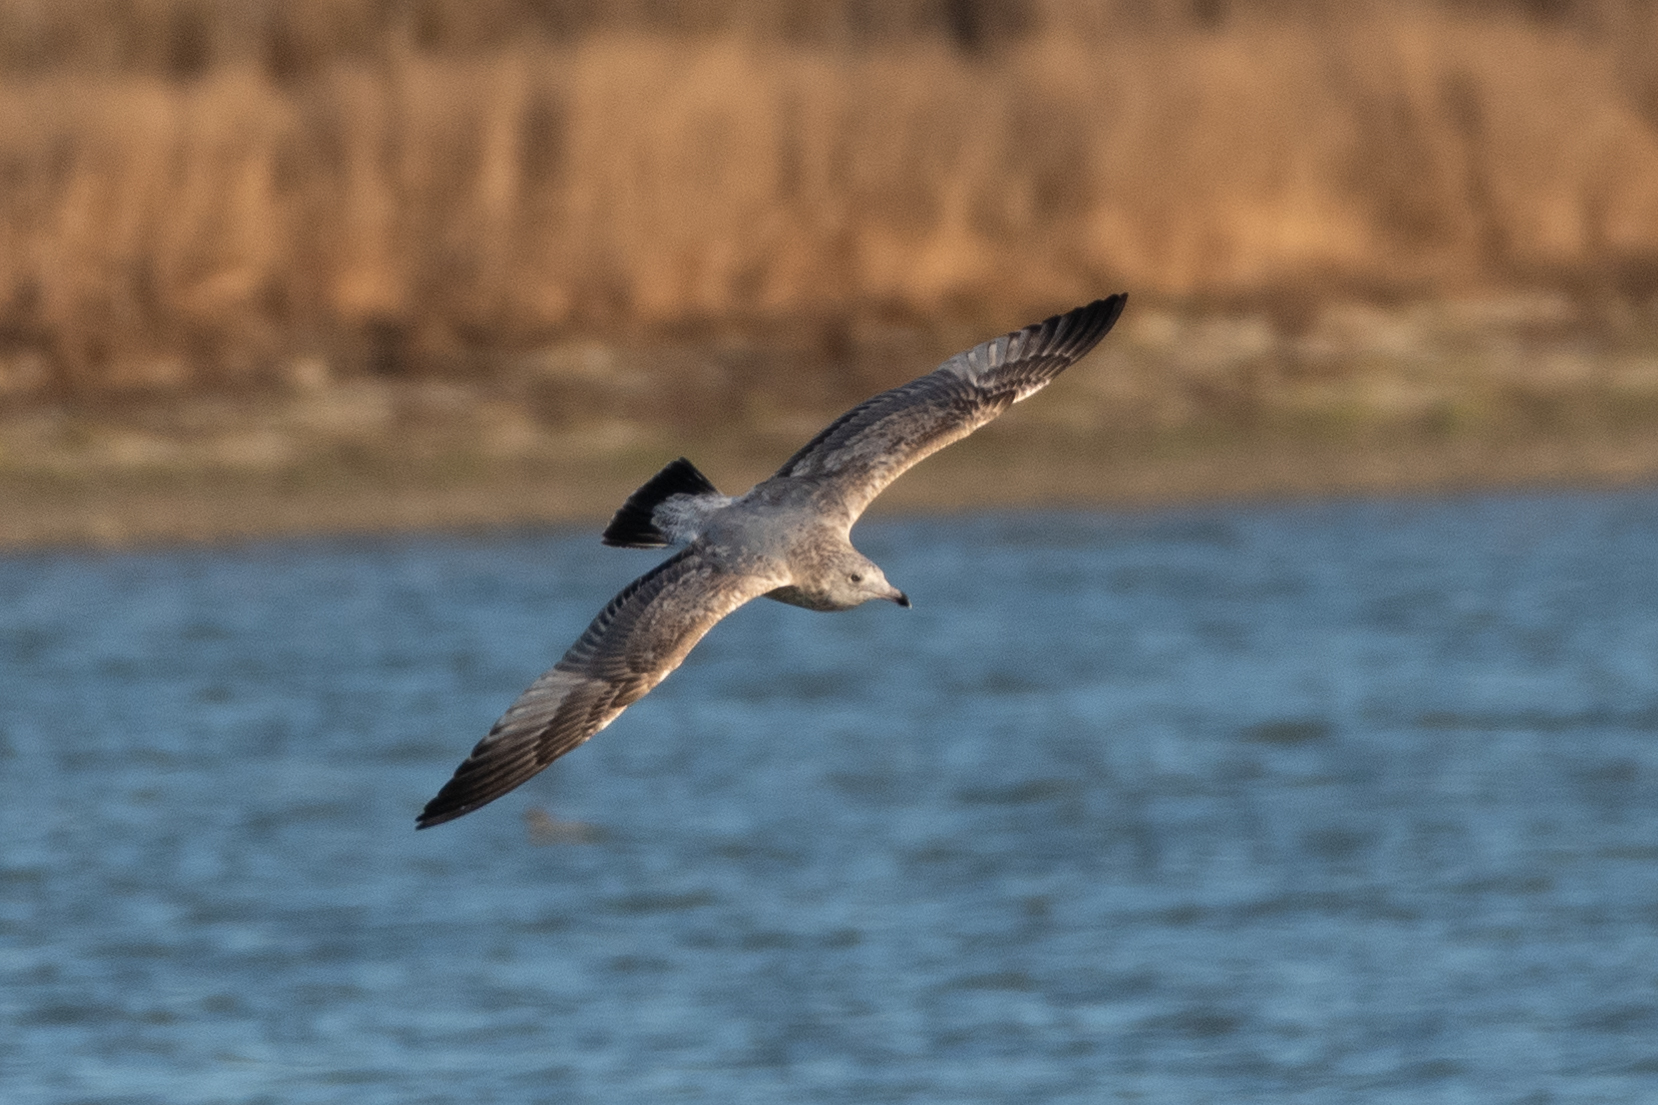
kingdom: Animalia
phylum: Chordata
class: Aves
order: Charadriiformes
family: Laridae
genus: Larus
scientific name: Larus californicus
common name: California gull
